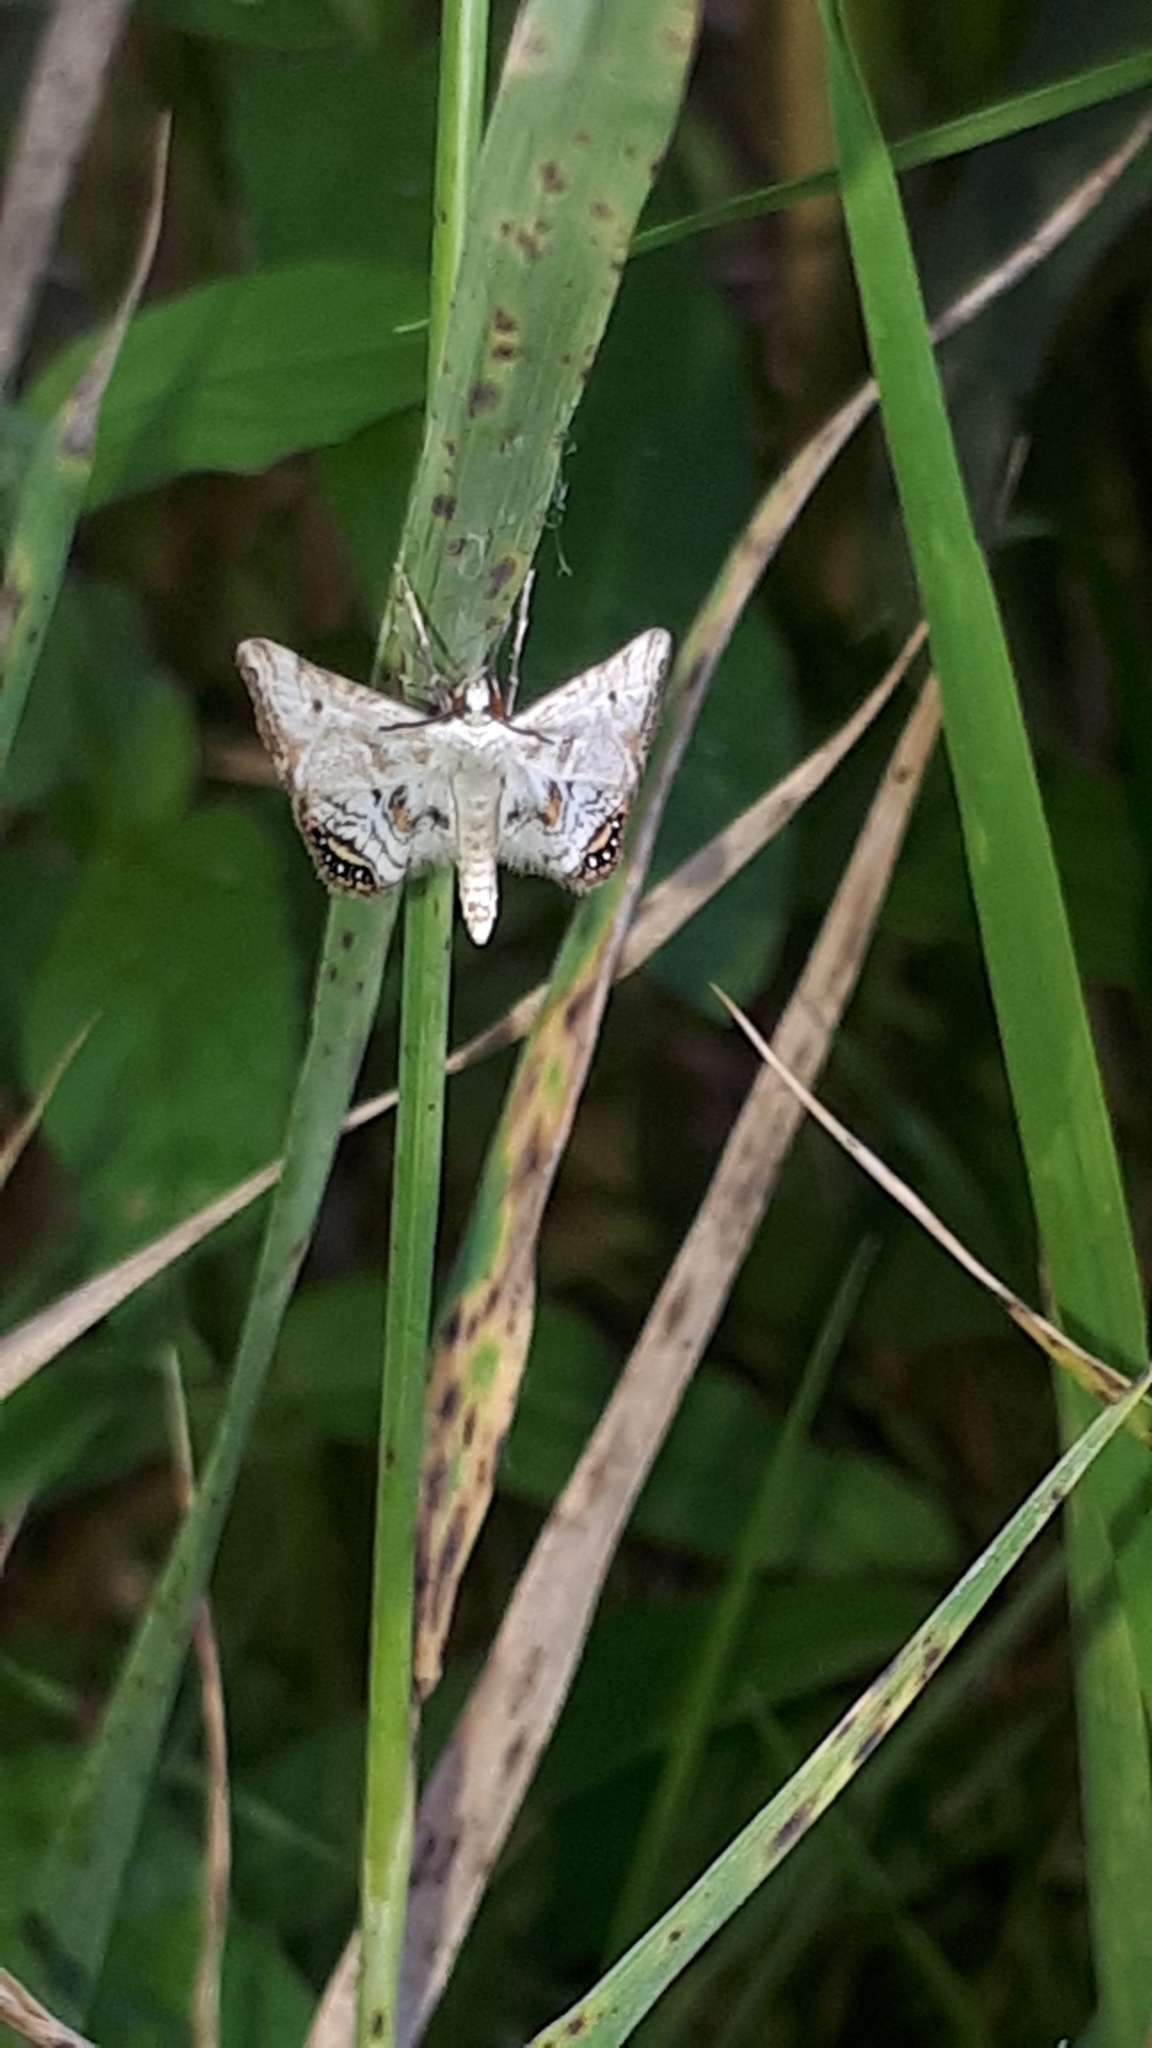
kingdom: Animalia
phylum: Arthropoda
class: Insecta
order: Lepidoptera
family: Crambidae
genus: Cataclysta
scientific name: Cataclysta lemnata
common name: Small china-mark
